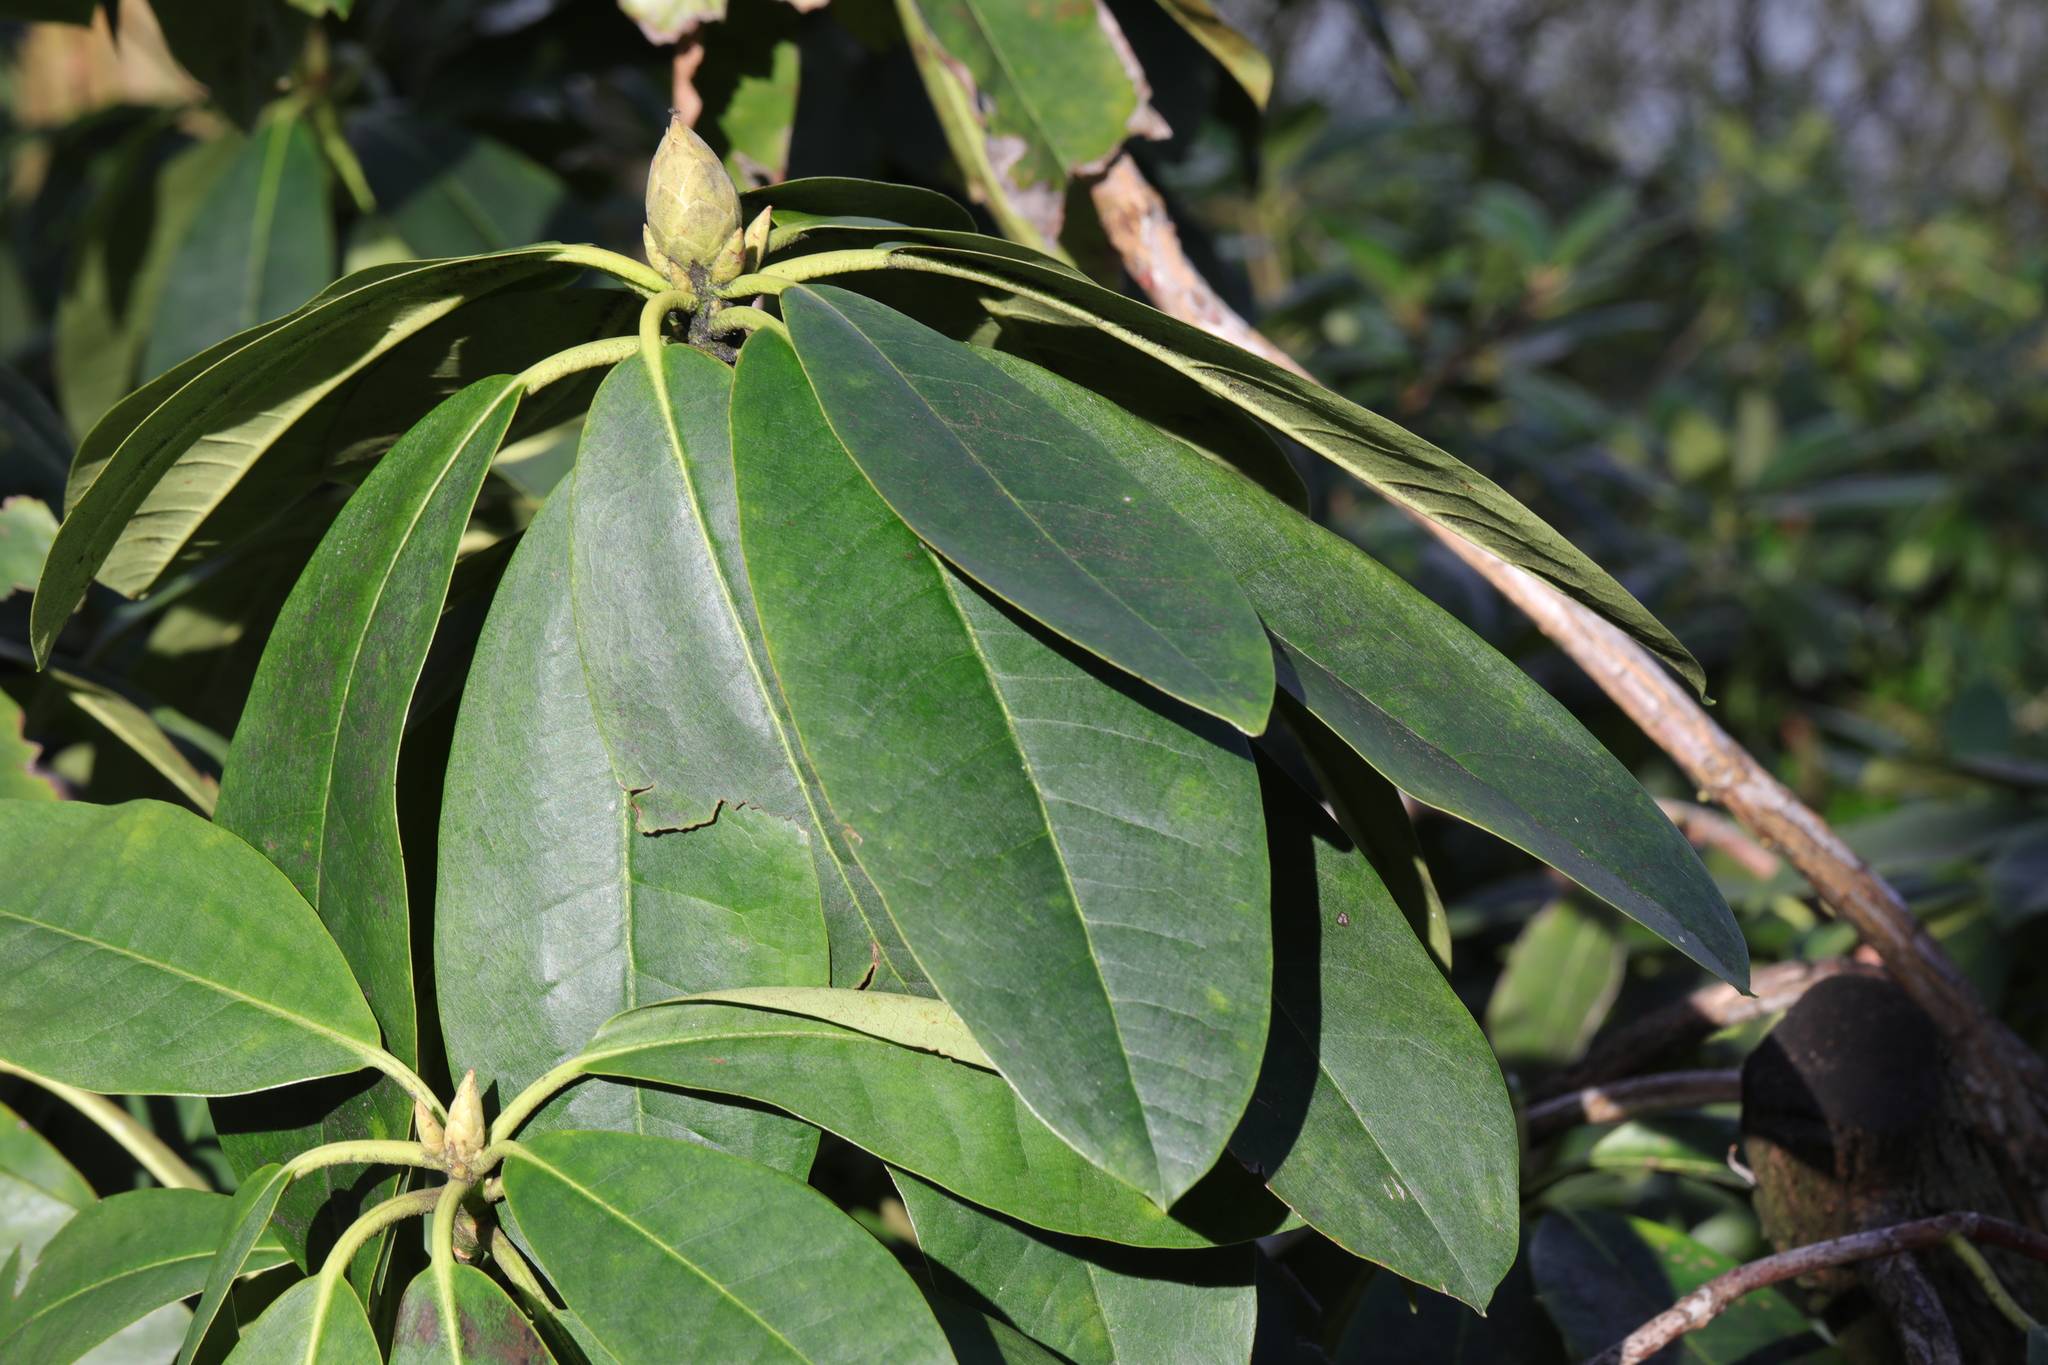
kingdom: Plantae
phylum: Tracheophyta
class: Magnoliopsida
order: Ericales
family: Ericaceae
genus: Rhododendron
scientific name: Rhododendron ponticum
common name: Rhododendron
